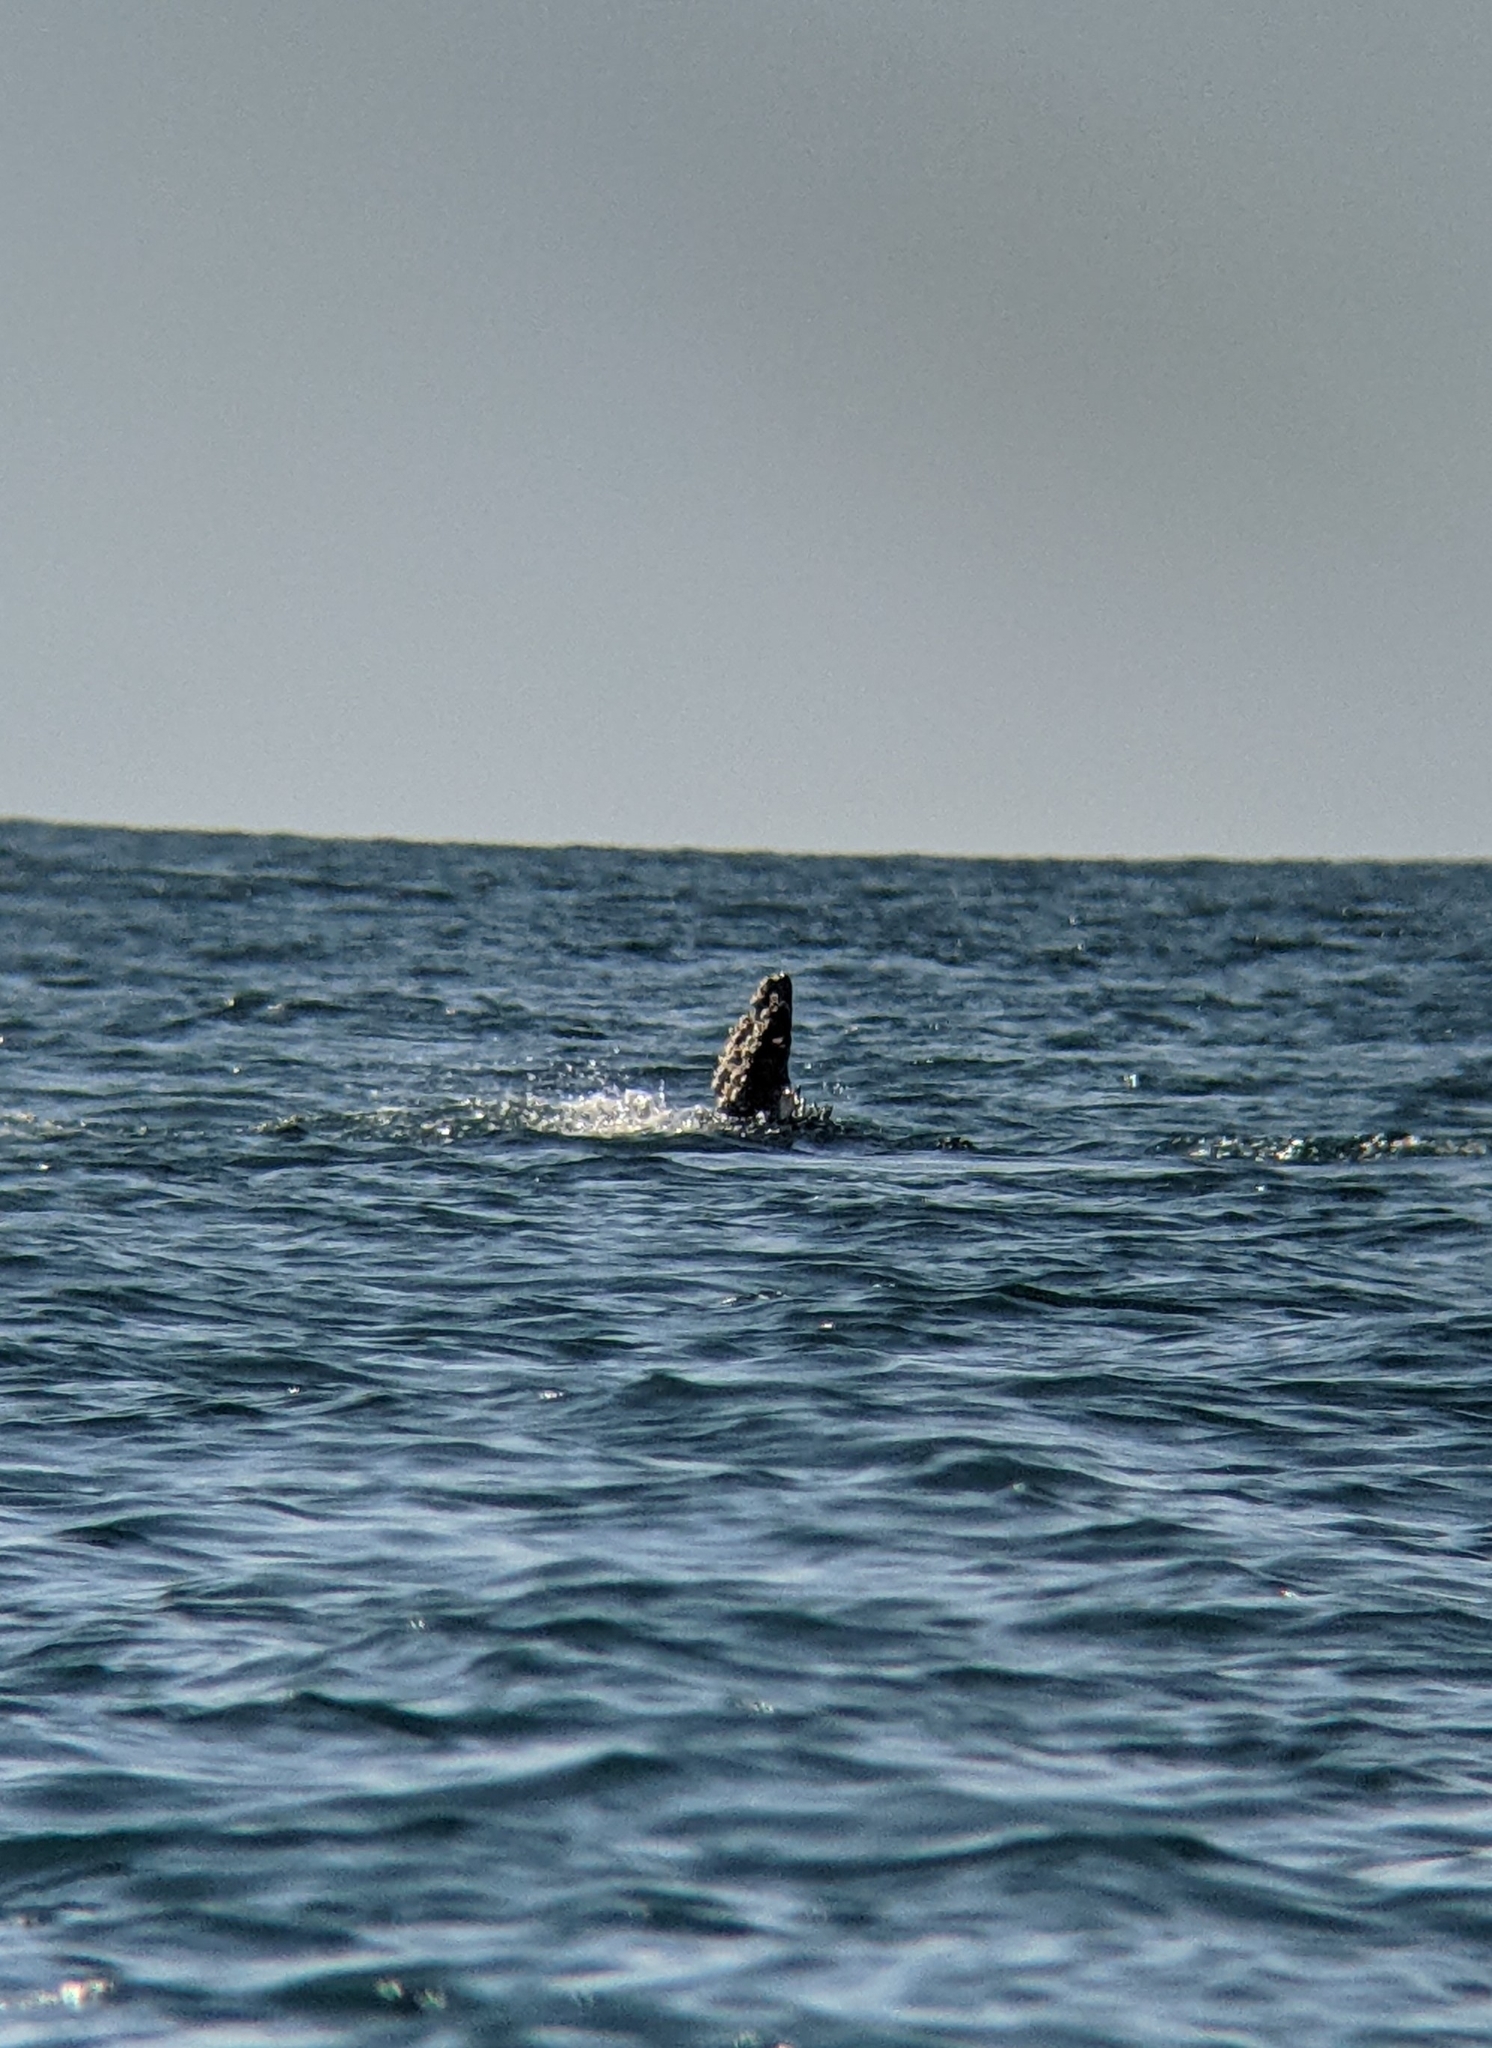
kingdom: Animalia
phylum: Chordata
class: Mammalia
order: Cetacea
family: Balaenopteridae
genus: Megaptera
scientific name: Megaptera novaeangliae
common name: Humpback whale
